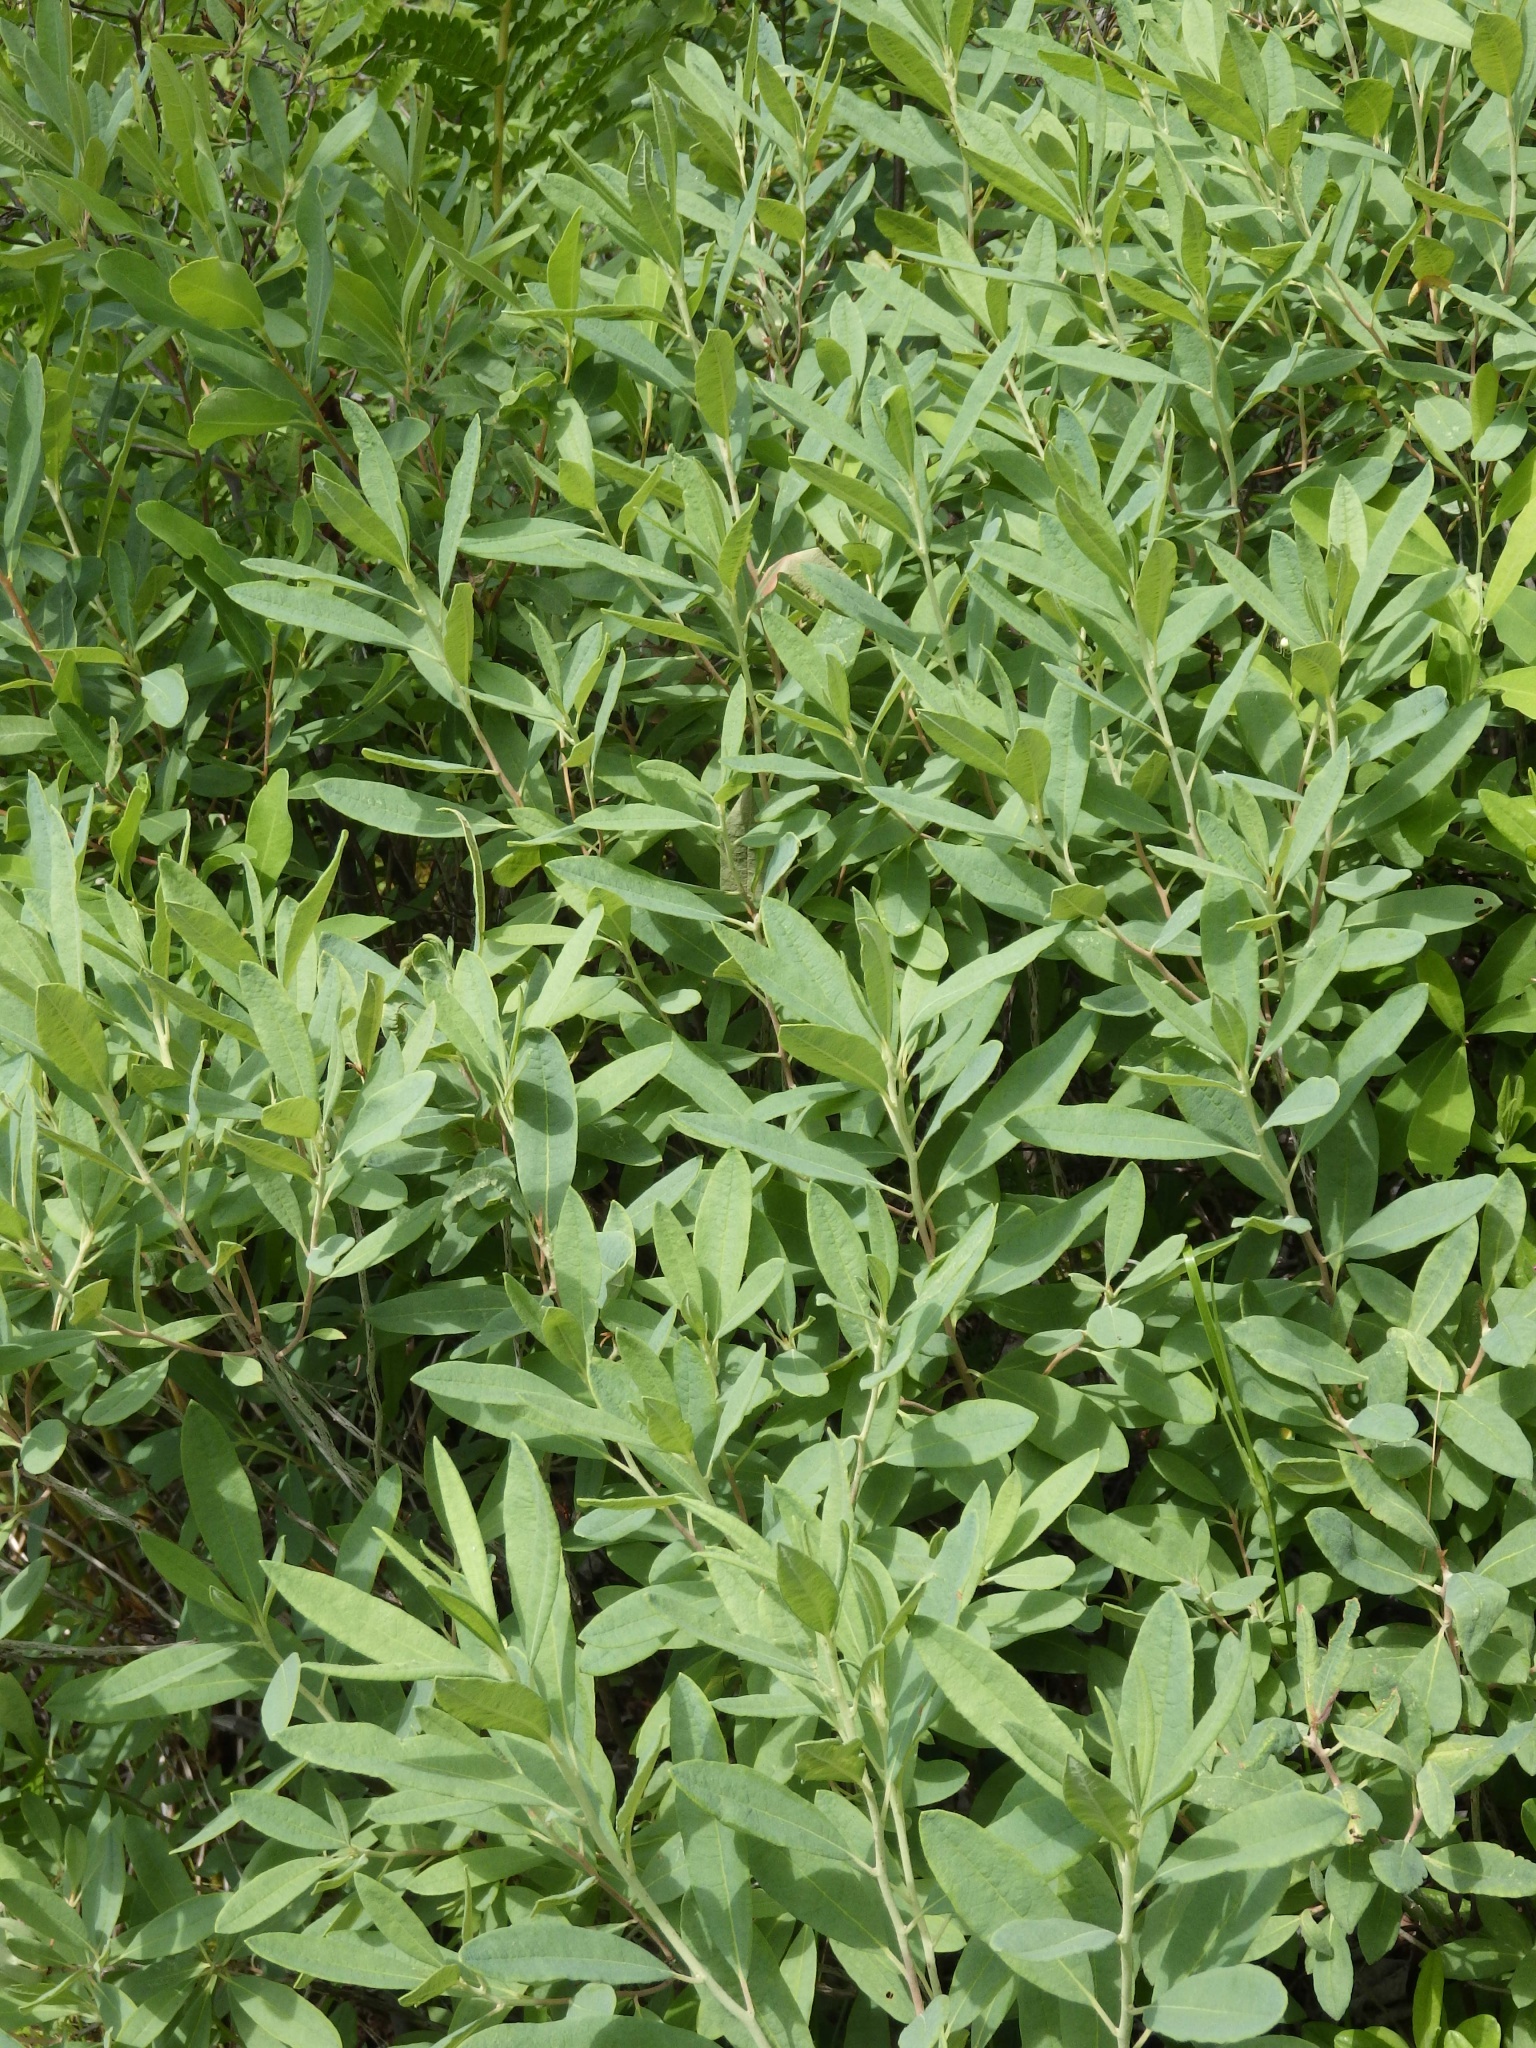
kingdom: Plantae
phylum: Tracheophyta
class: Magnoliopsida
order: Ericales
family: Ericaceae
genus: Chamaedaphne
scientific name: Chamaedaphne calyculata
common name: Leatherleaf
